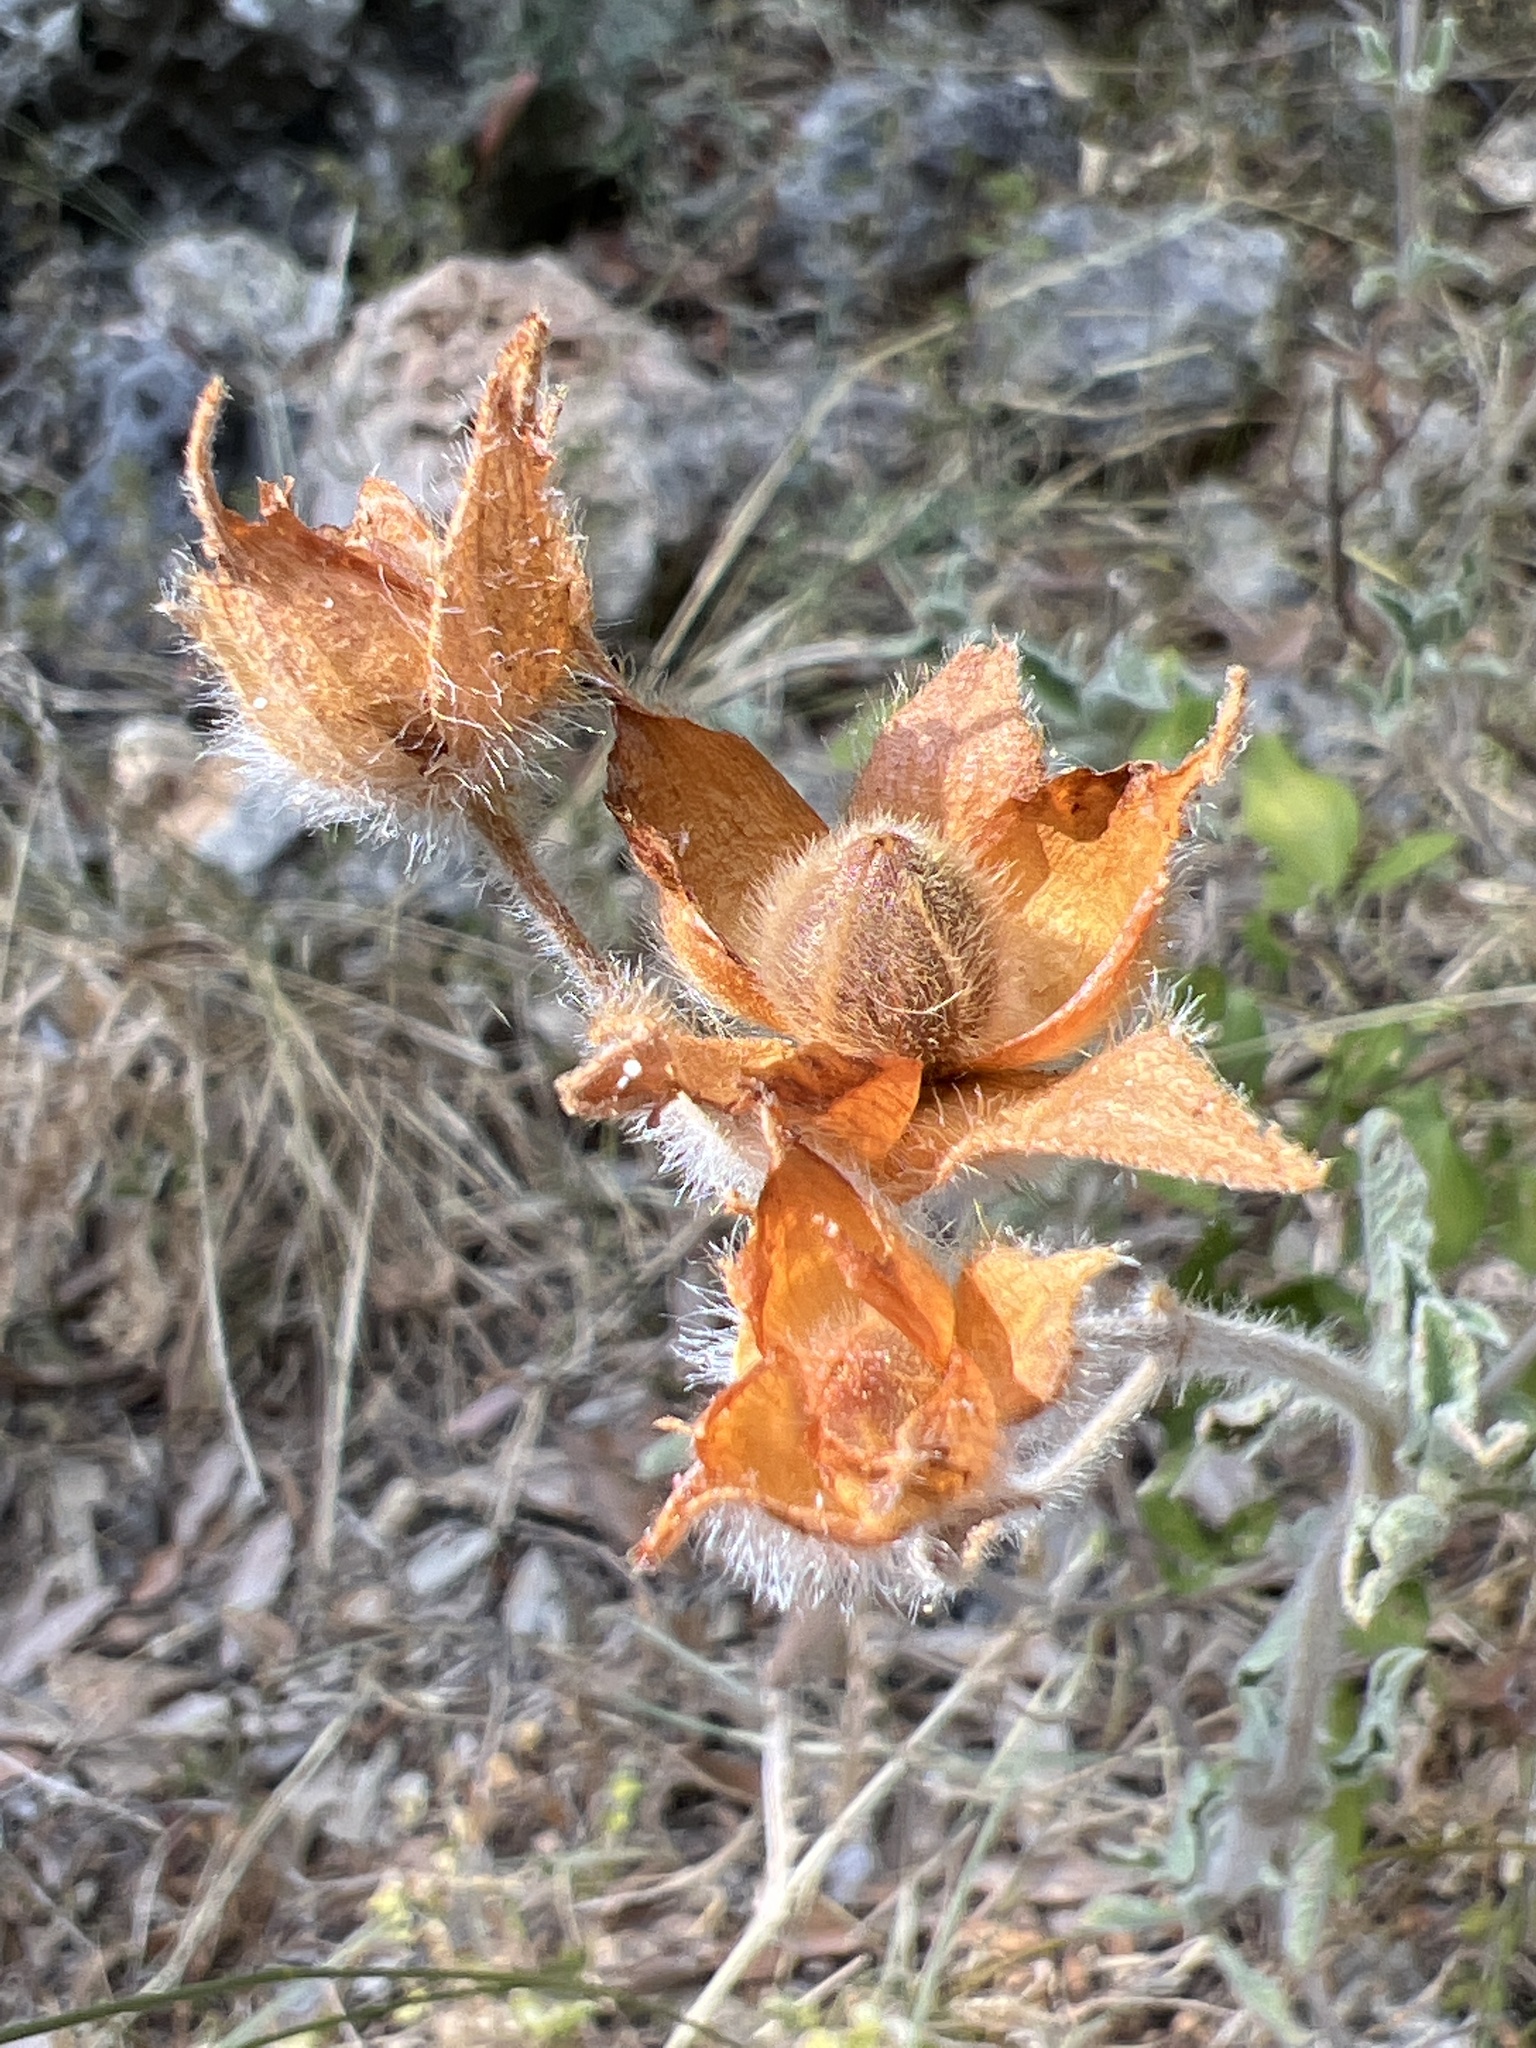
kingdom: Plantae
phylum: Tracheophyta
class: Magnoliopsida
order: Malvales
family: Cistaceae
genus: Cistus
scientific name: Cistus creticus
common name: Cretan rockrose
